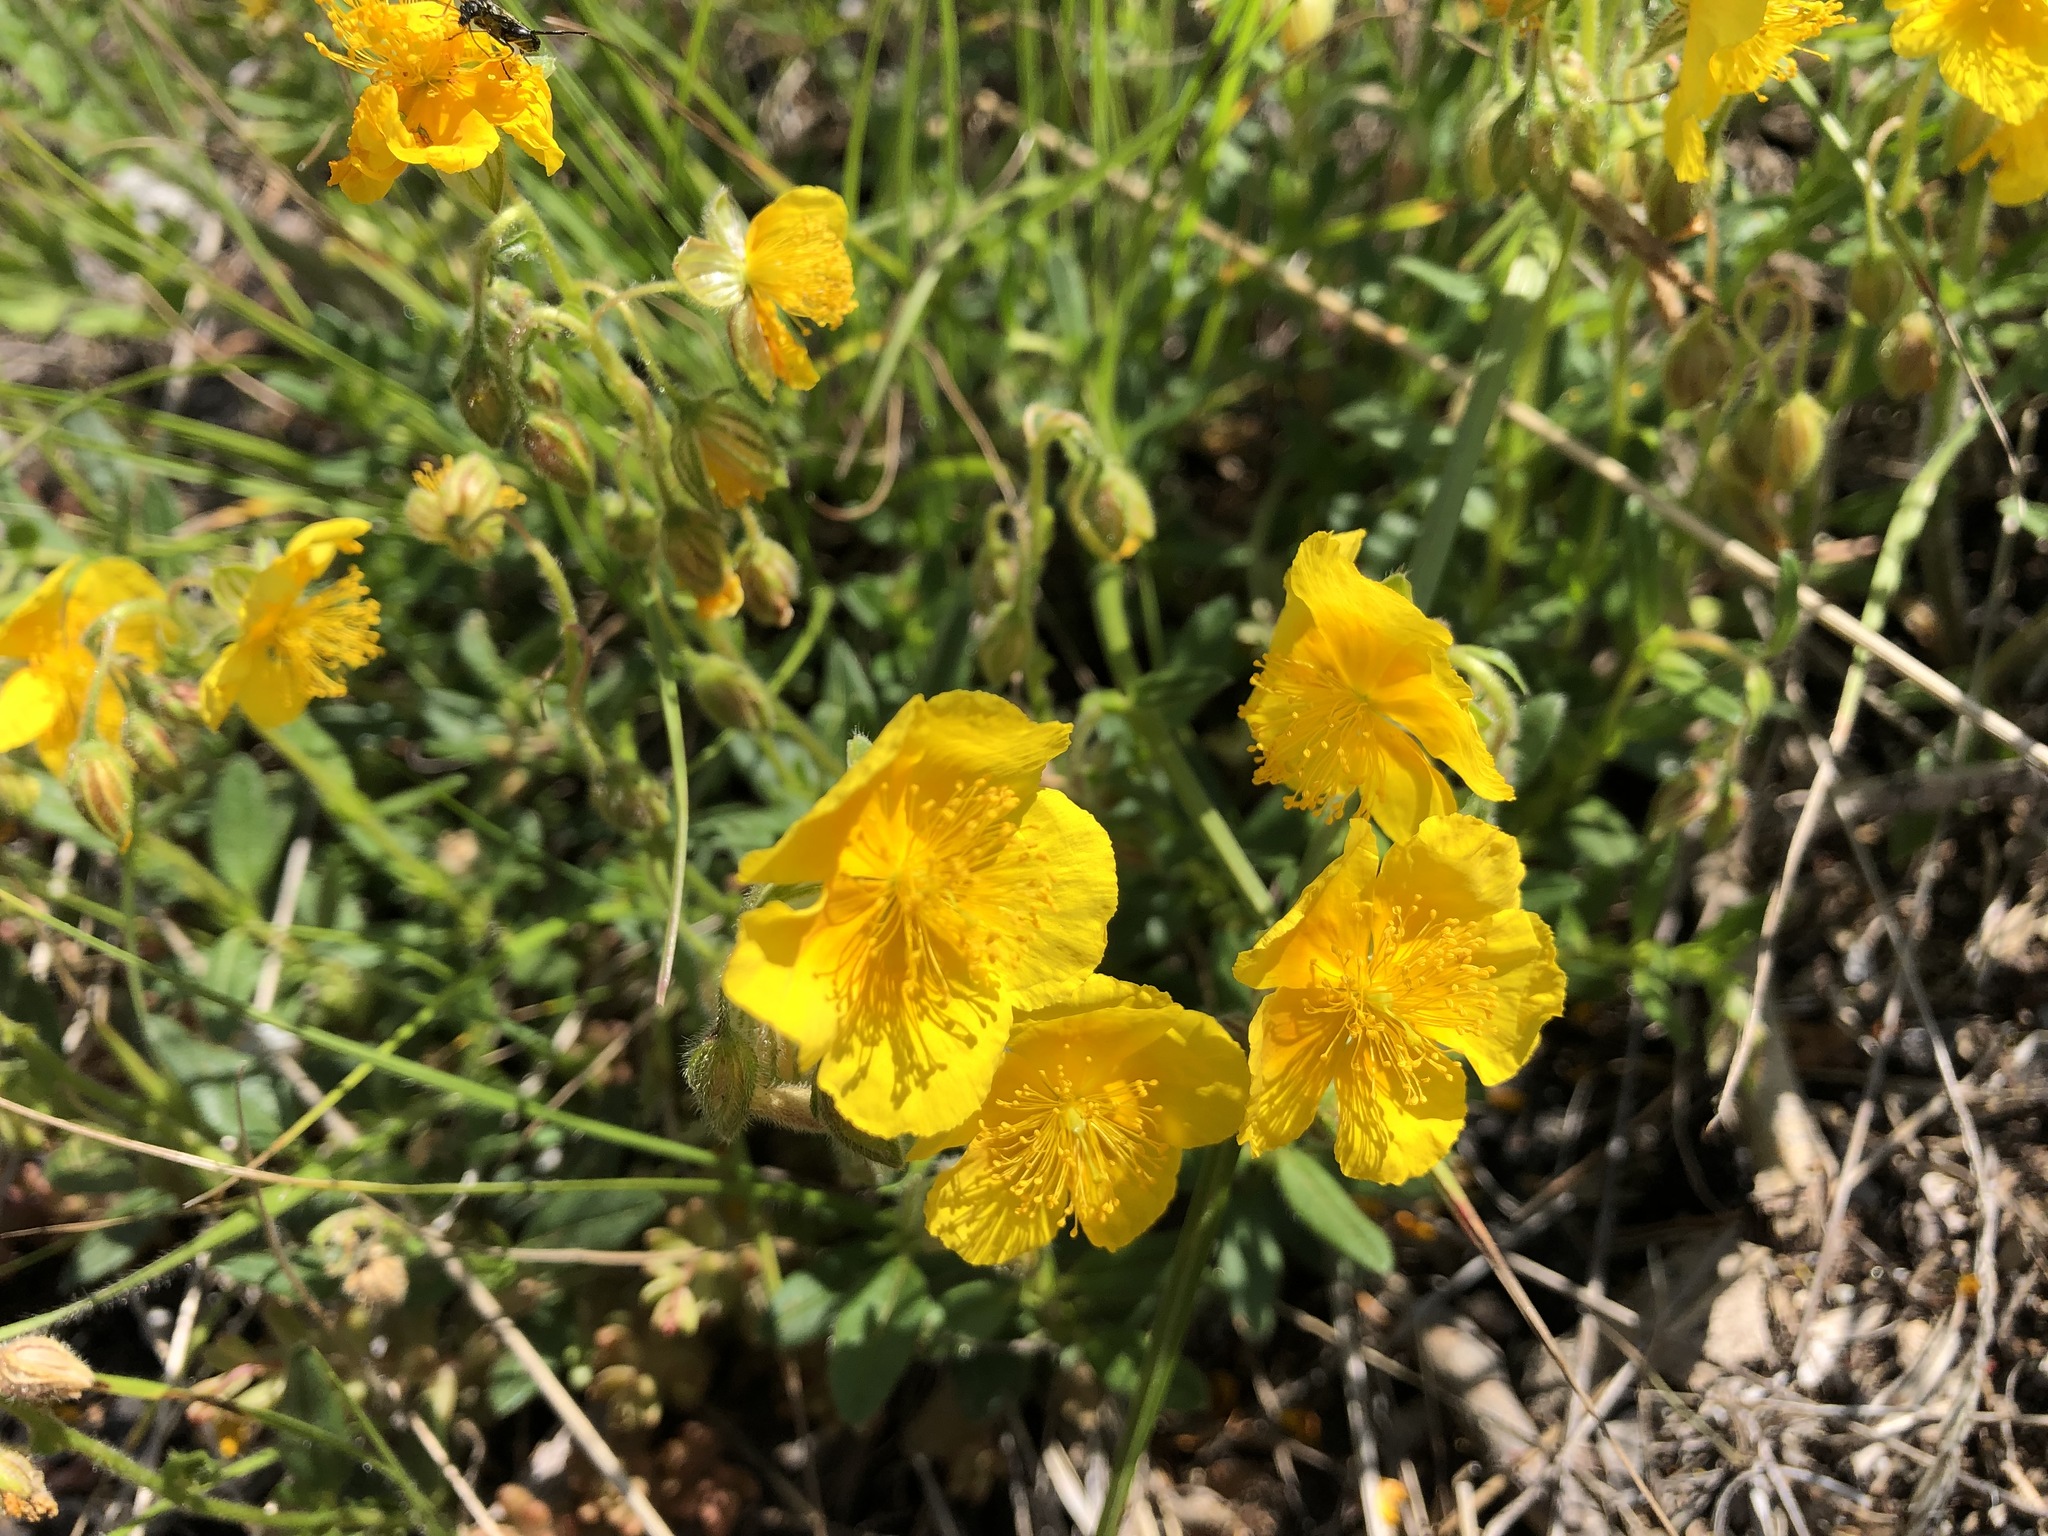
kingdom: Plantae
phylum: Tracheophyta
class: Magnoliopsida
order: Malvales
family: Cistaceae
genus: Helianthemum
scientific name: Helianthemum nummularium
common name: Common rock-rose
